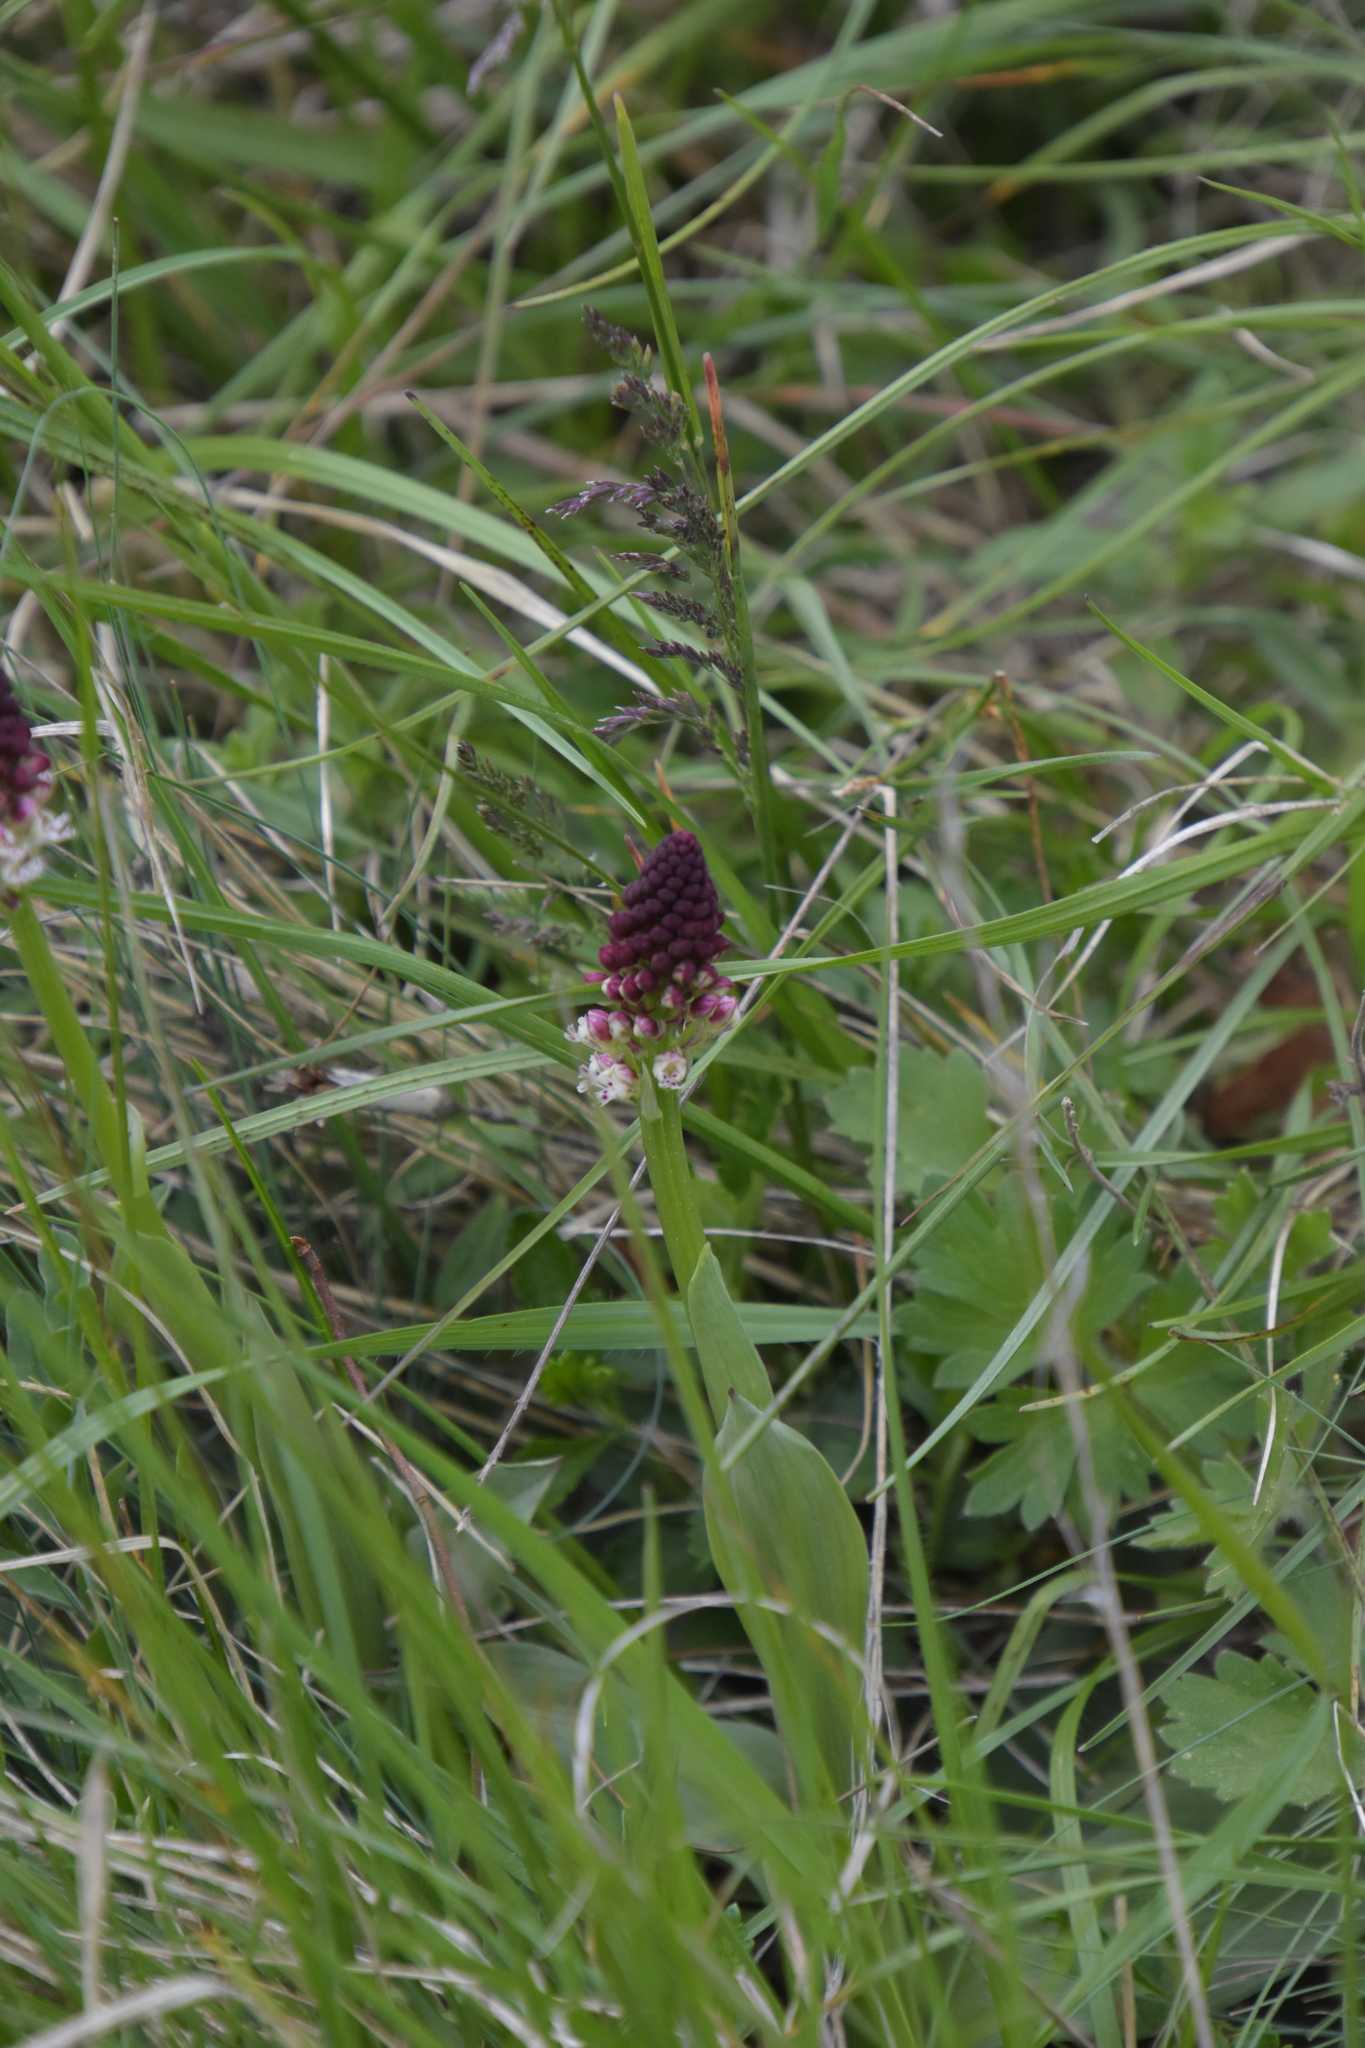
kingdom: Plantae
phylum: Tracheophyta
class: Liliopsida
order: Asparagales
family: Orchidaceae
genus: Neotinea
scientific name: Neotinea ustulata
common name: Burnt orchid
